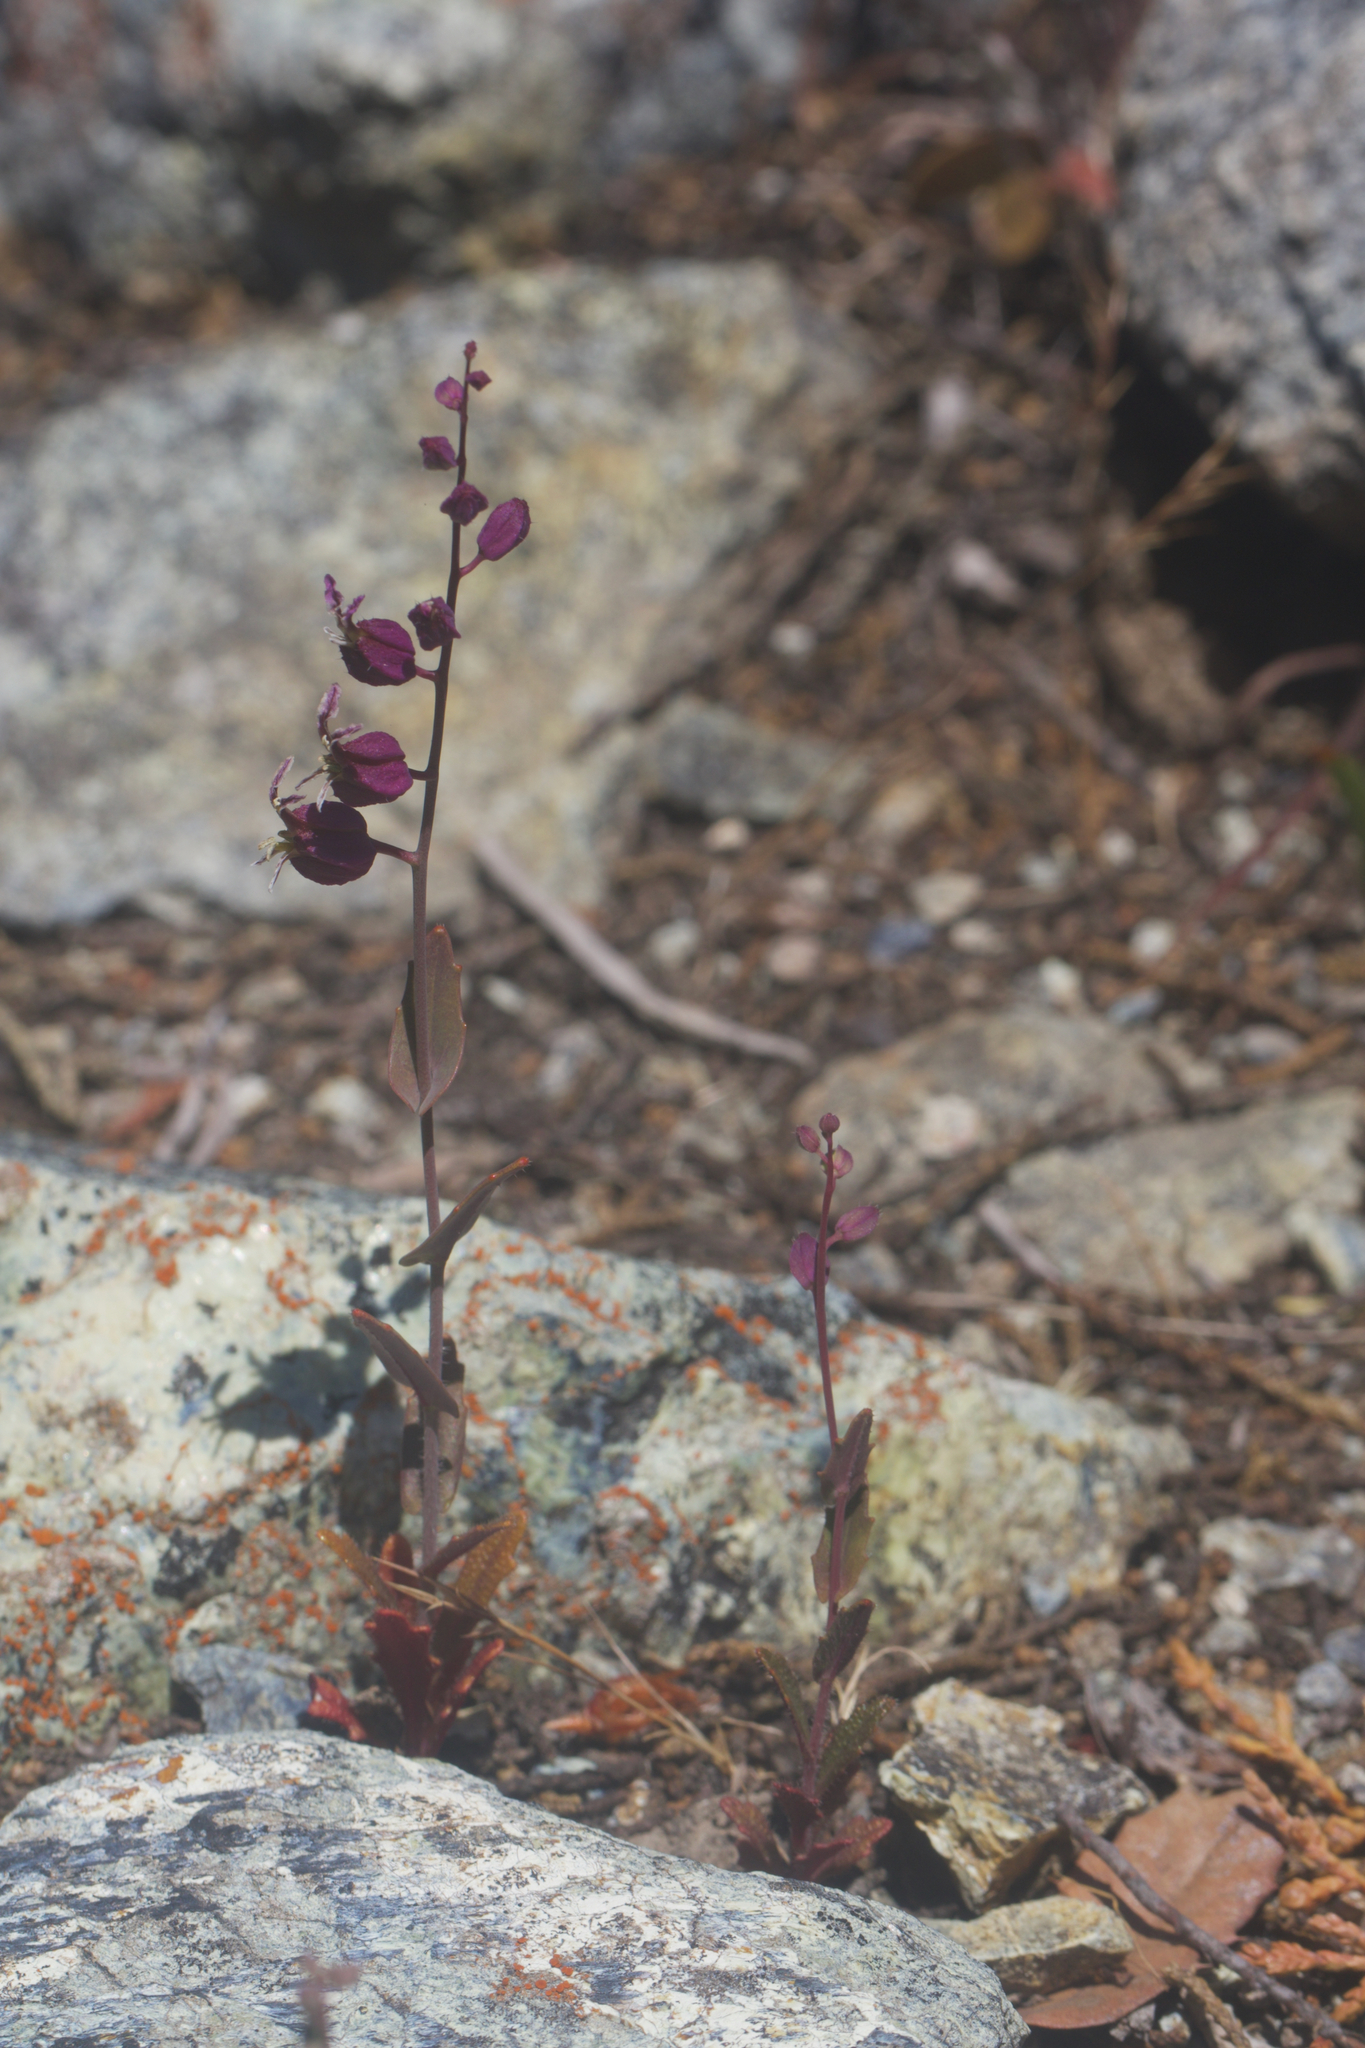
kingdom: Plantae
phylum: Tracheophyta
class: Magnoliopsida
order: Brassicales
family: Brassicaceae
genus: Streptanthus
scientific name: Streptanthus glandulosus
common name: Jewel-flower
